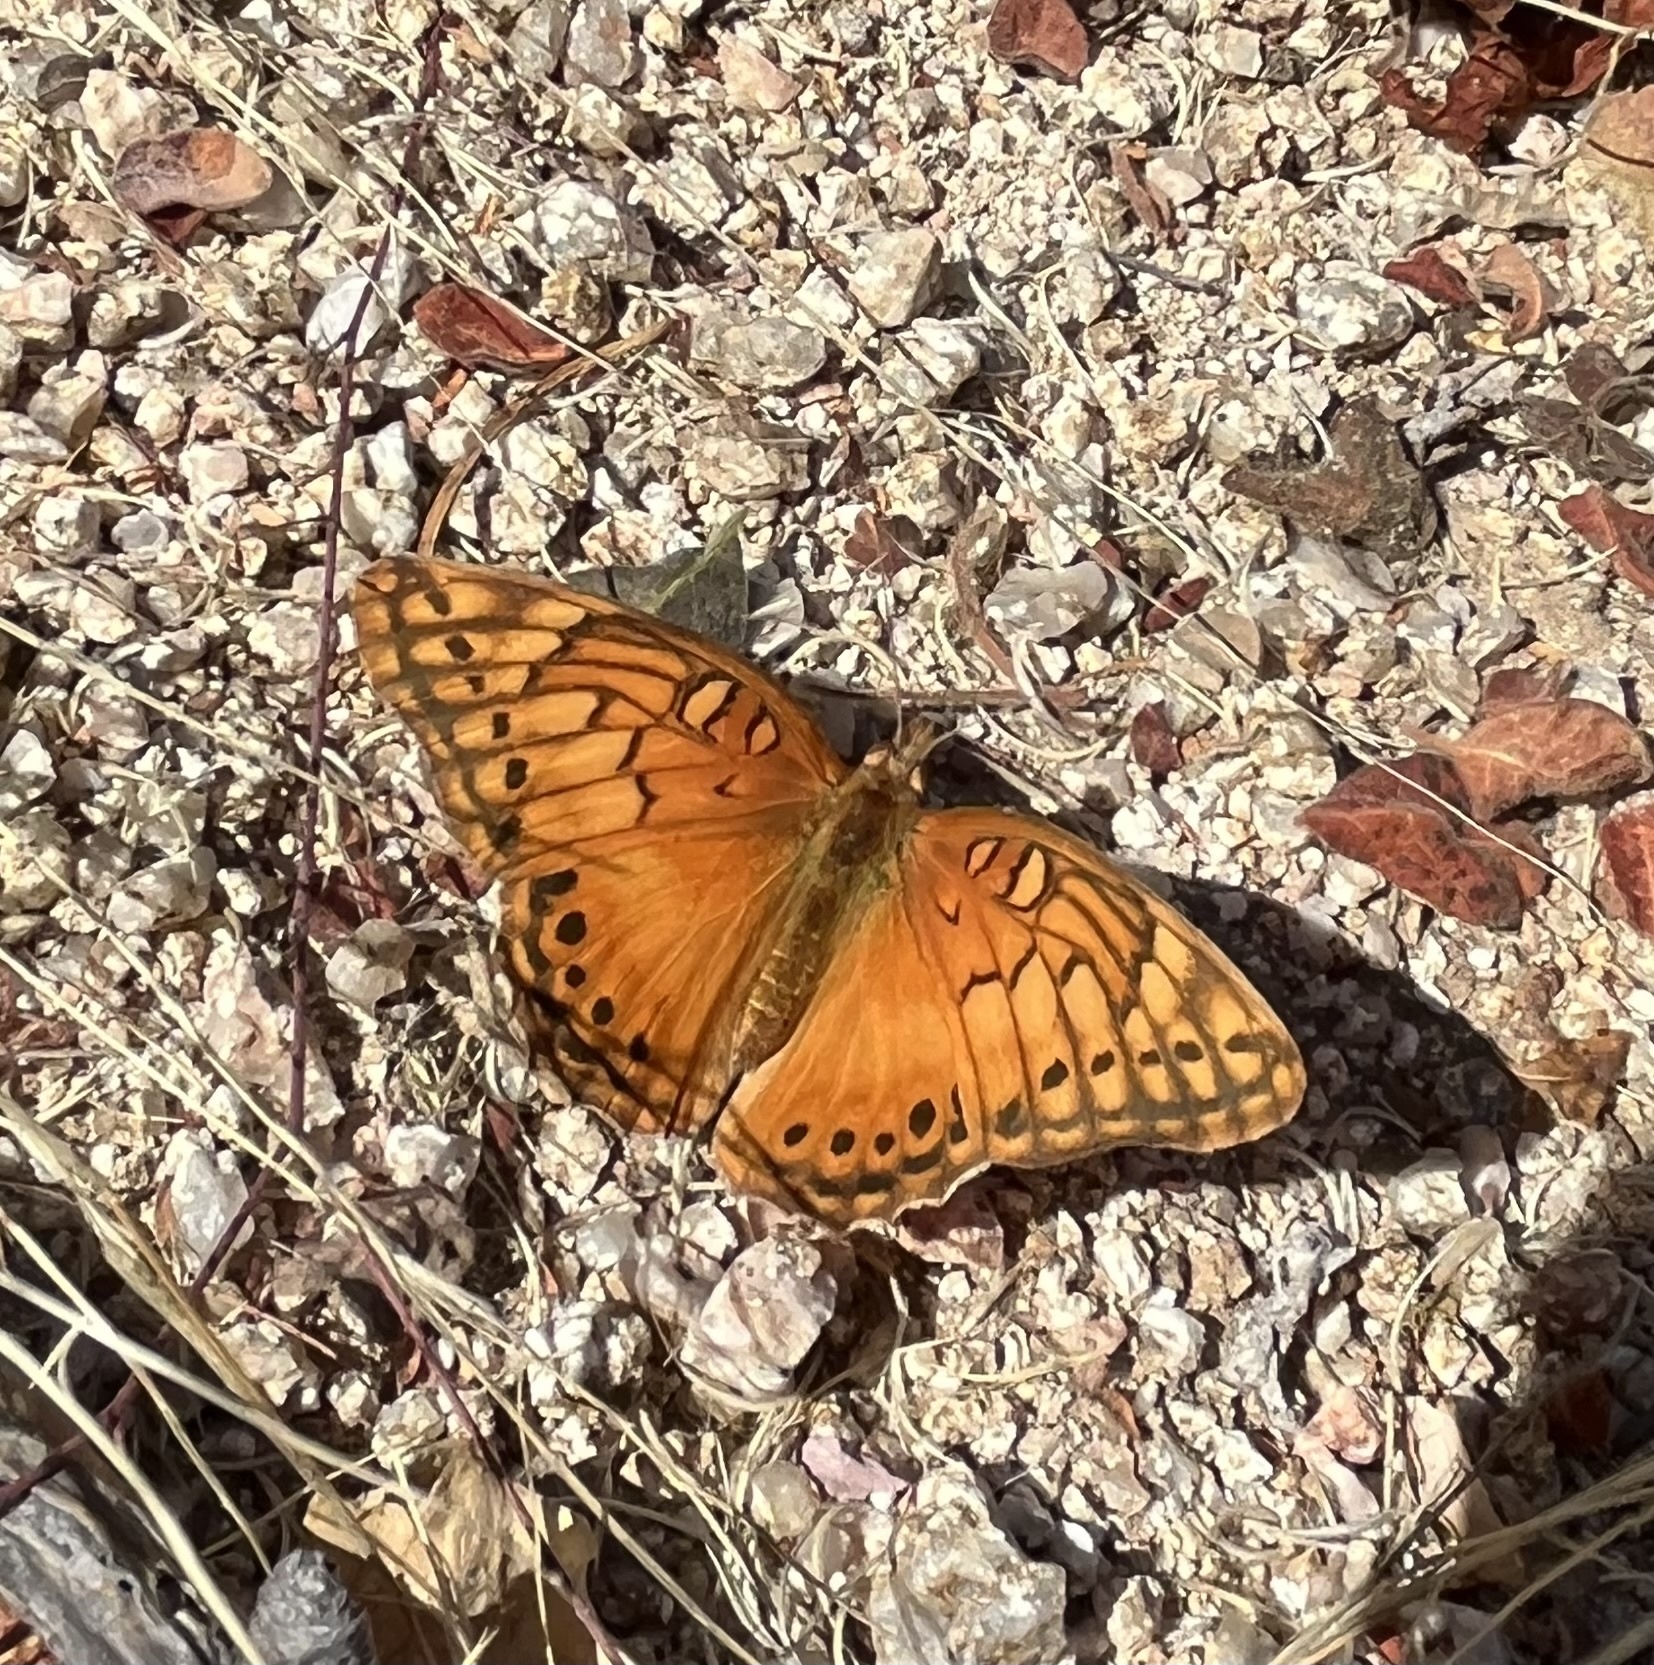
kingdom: Animalia
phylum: Arthropoda
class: Insecta
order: Lepidoptera
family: Nymphalidae
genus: Euptoieta
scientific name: Euptoieta hegesia
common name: Mexican fritillary
